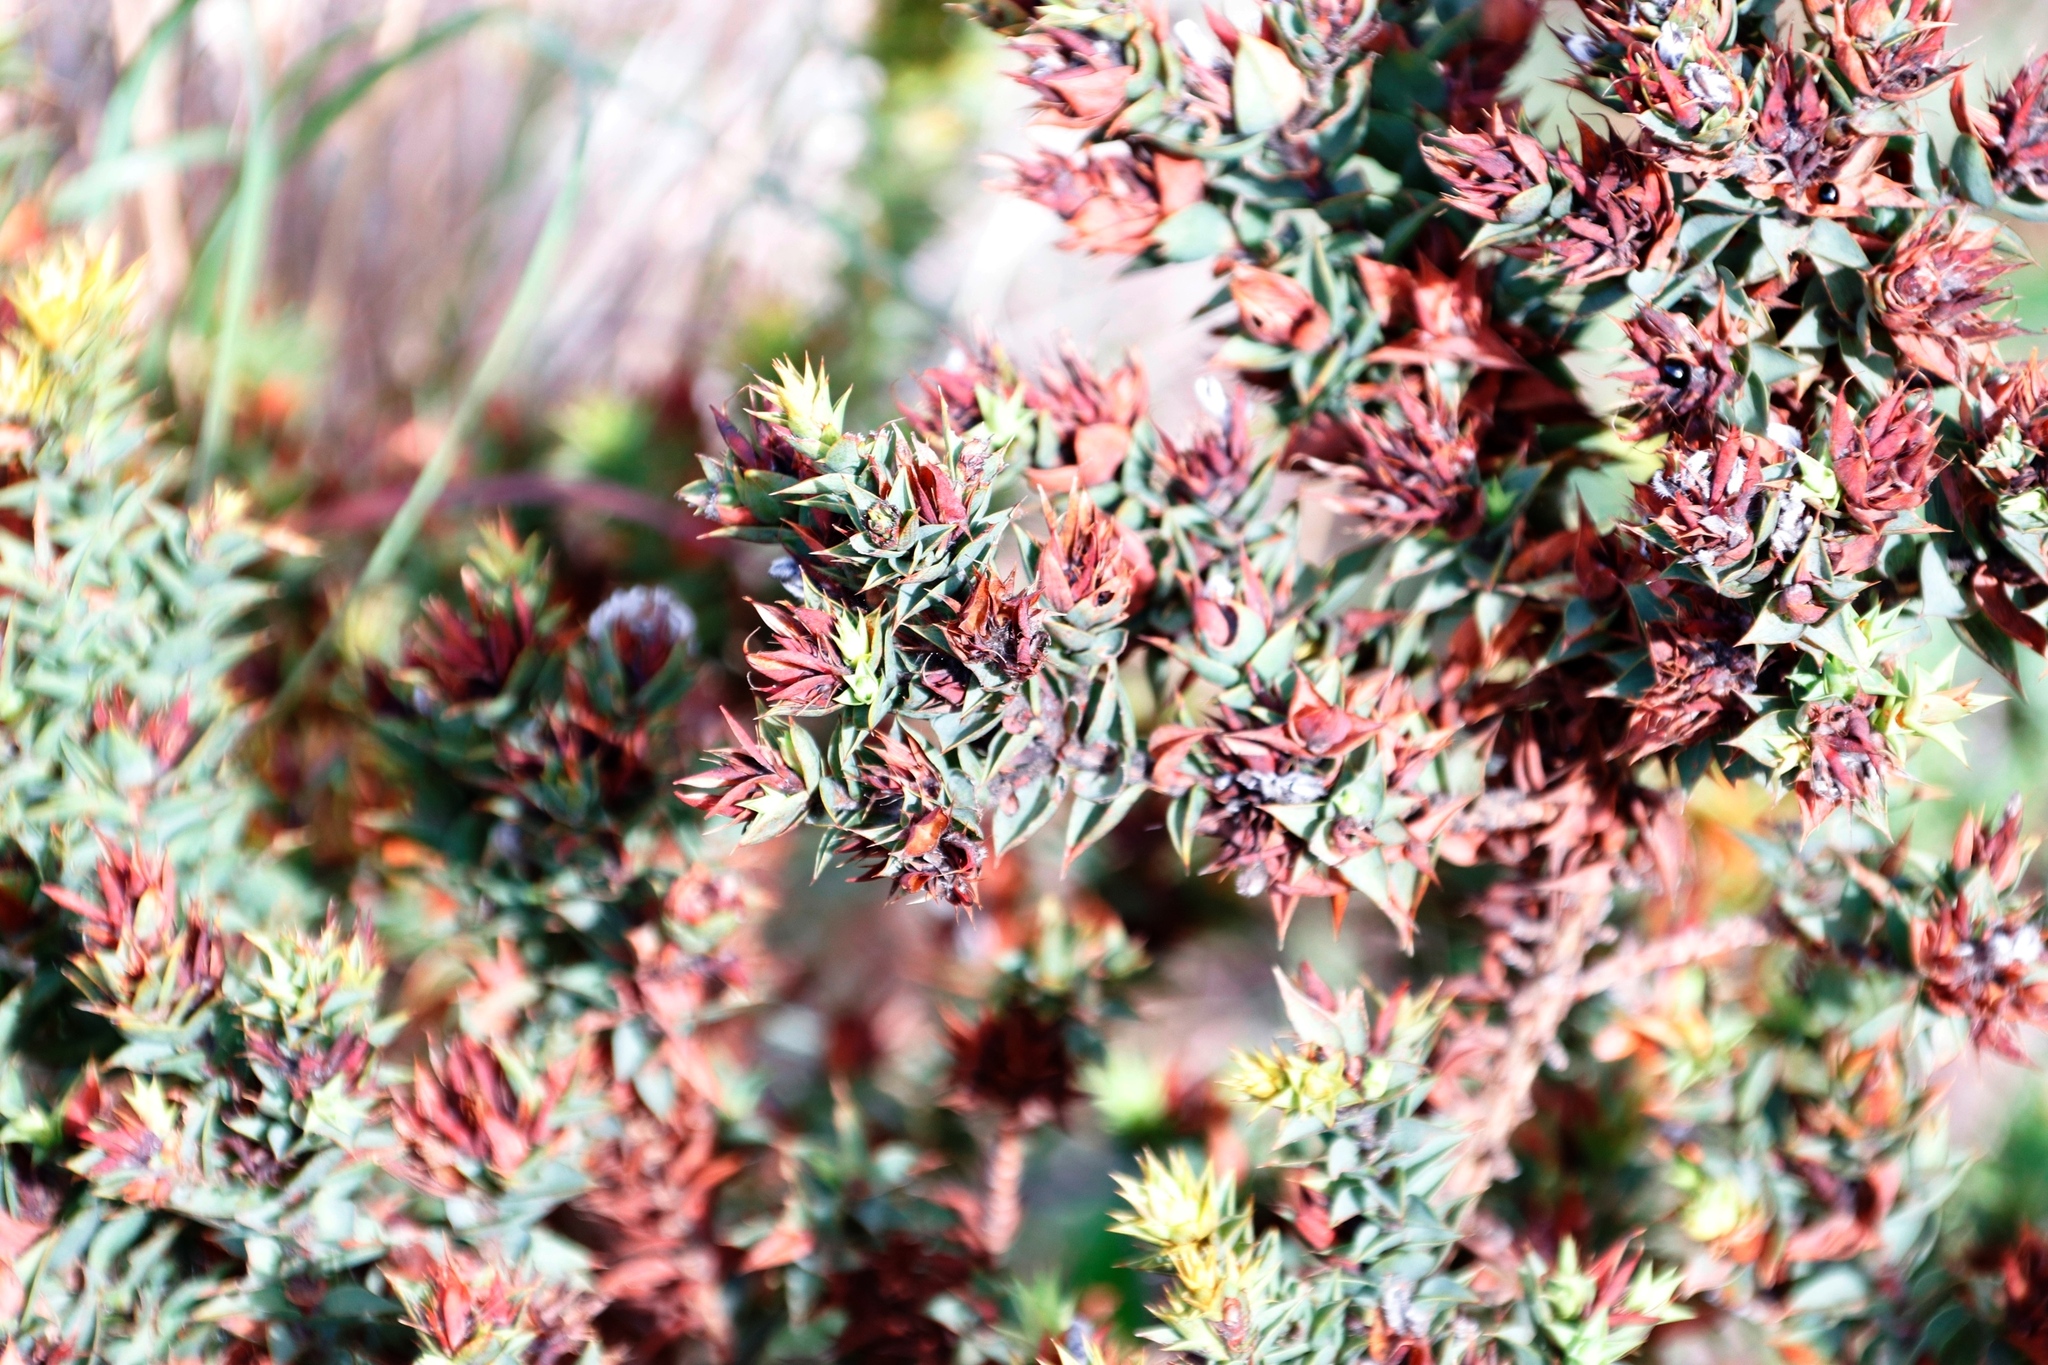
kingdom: Plantae
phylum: Tracheophyta
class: Magnoliopsida
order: Fabales
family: Fabaceae
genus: Aspalathus
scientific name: Aspalathus cordata
